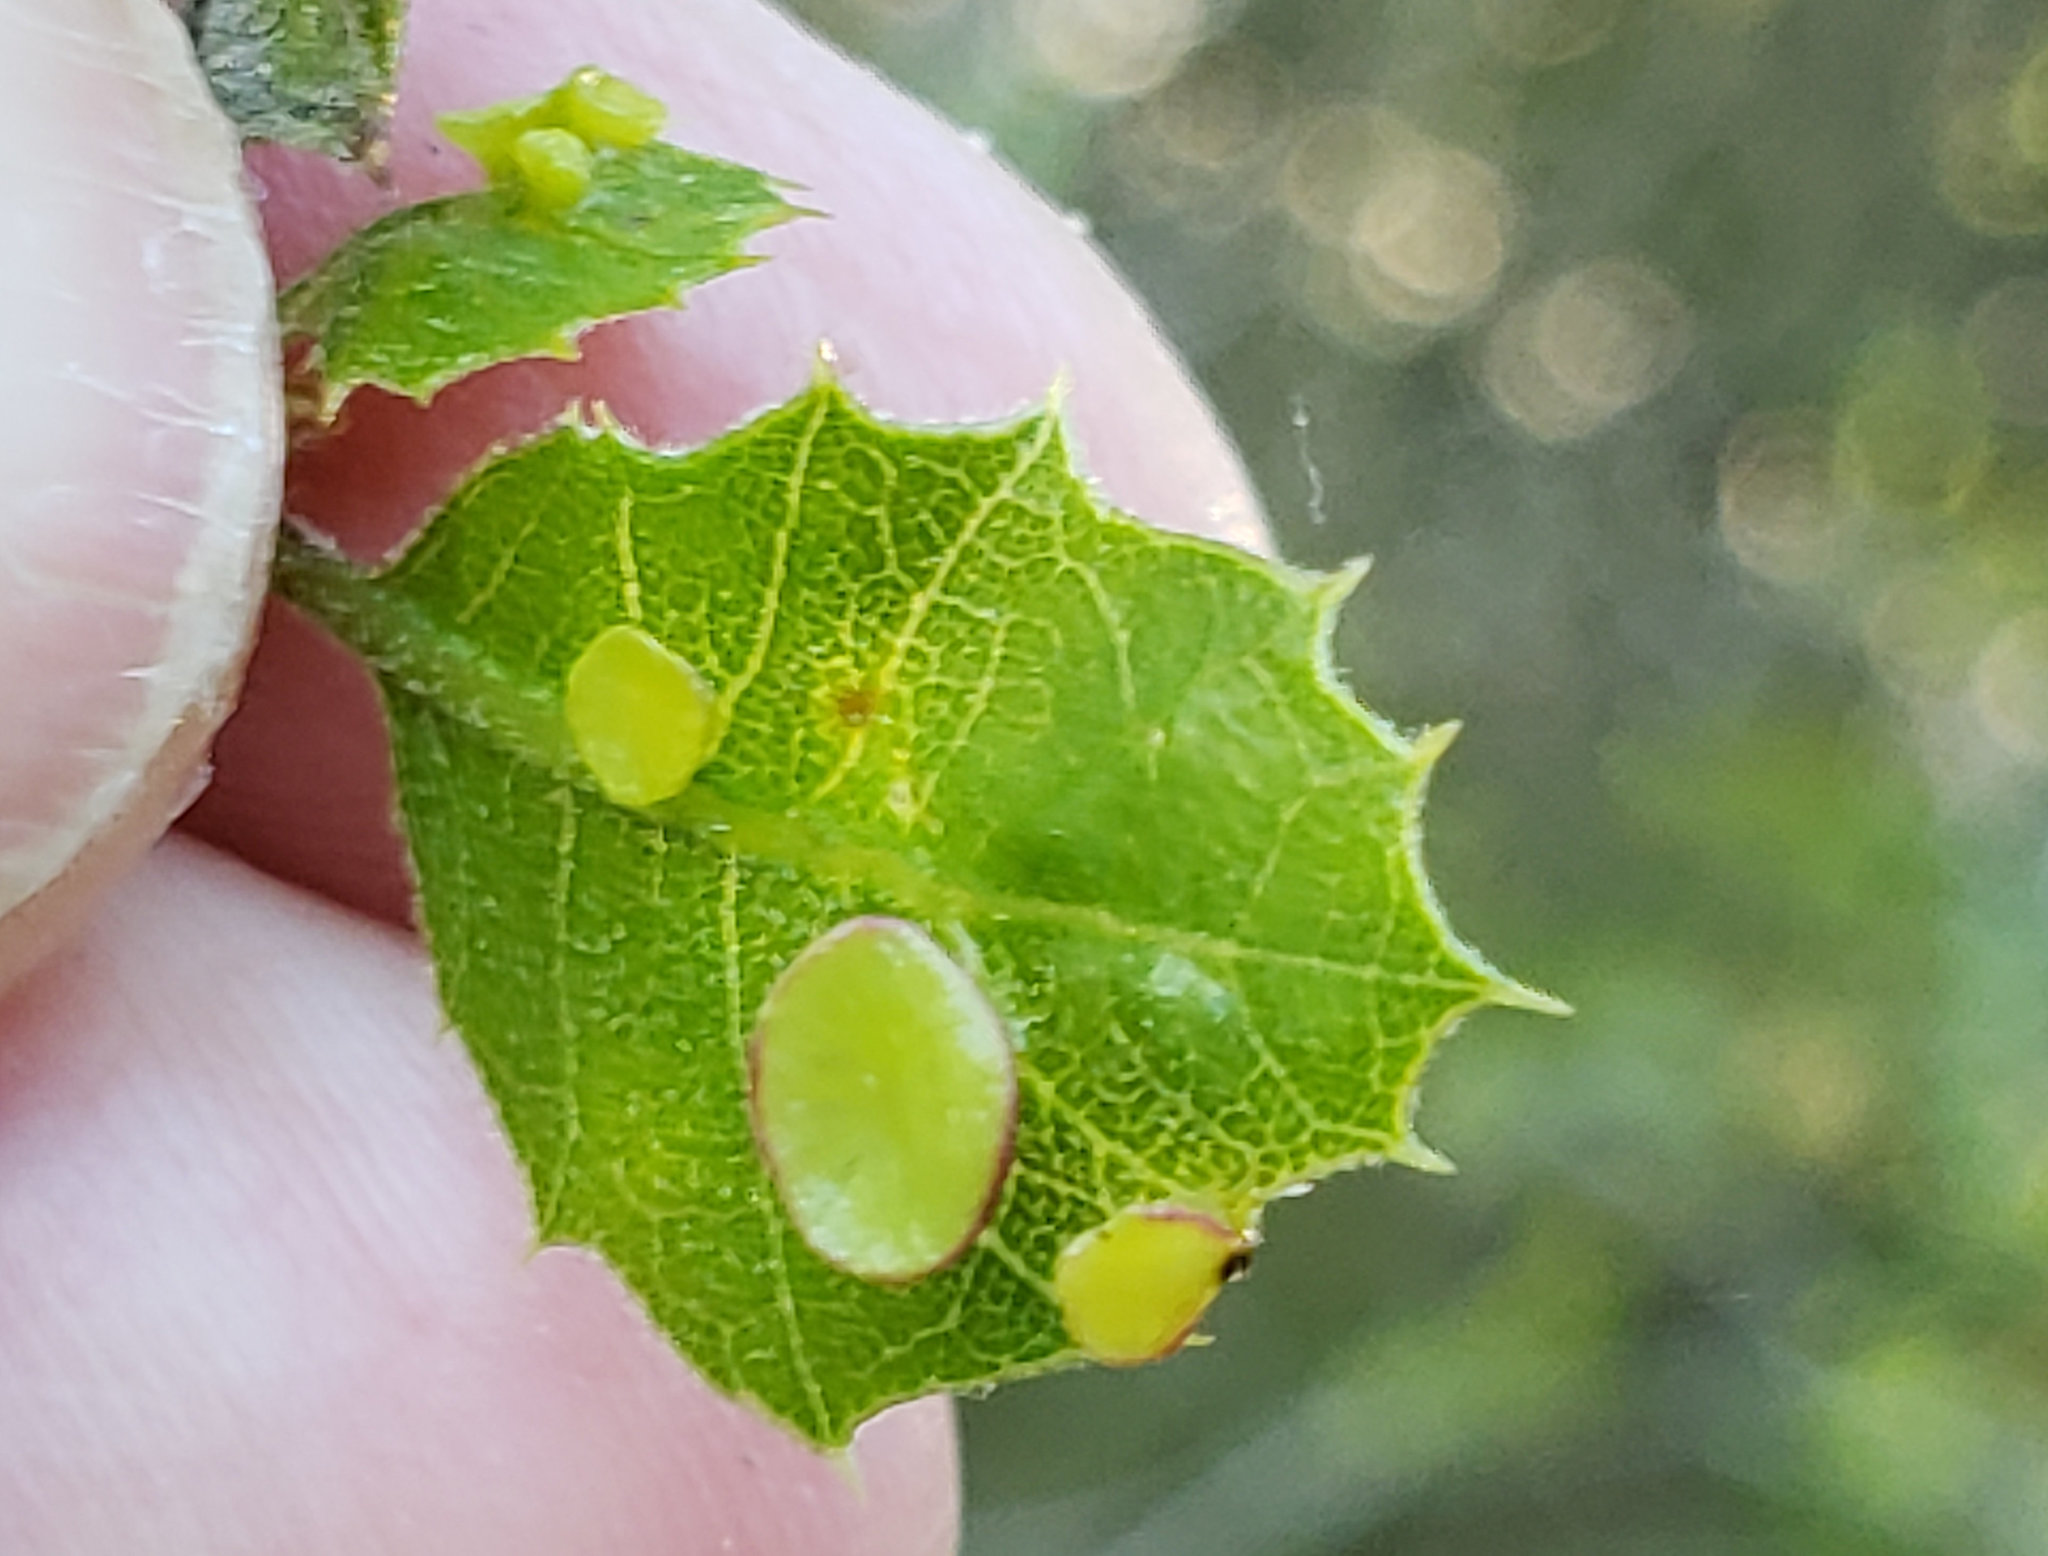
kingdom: Animalia
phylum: Arthropoda
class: Insecta
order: Hymenoptera
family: Cynipidae
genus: Amphibolips
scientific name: Amphibolips quercuspomiformis
